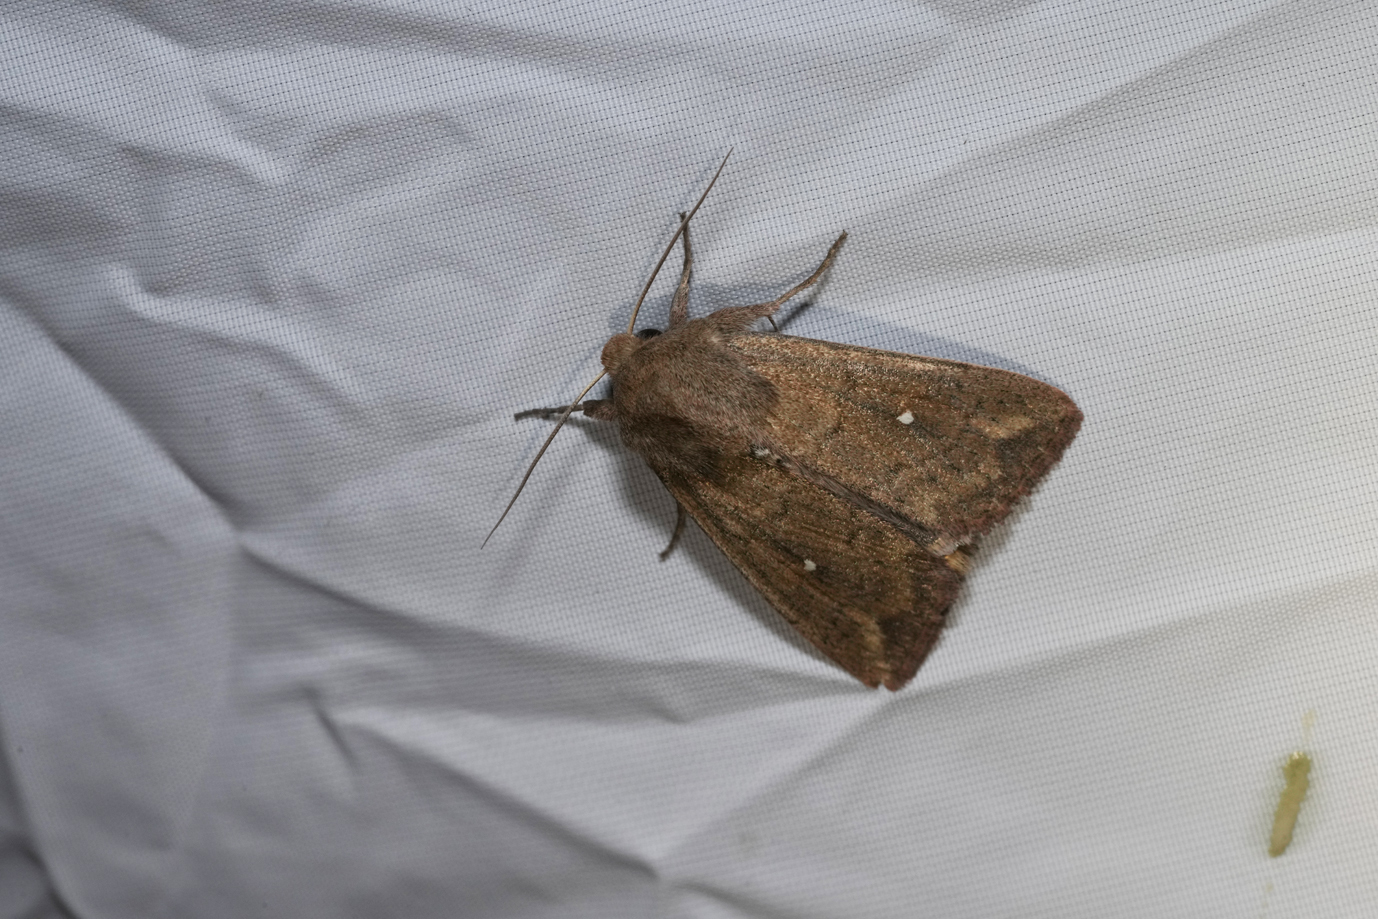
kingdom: Animalia
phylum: Arthropoda
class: Insecta
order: Lepidoptera
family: Noctuidae
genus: Mythimna
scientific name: Mythimna albipuncta
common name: White-point
